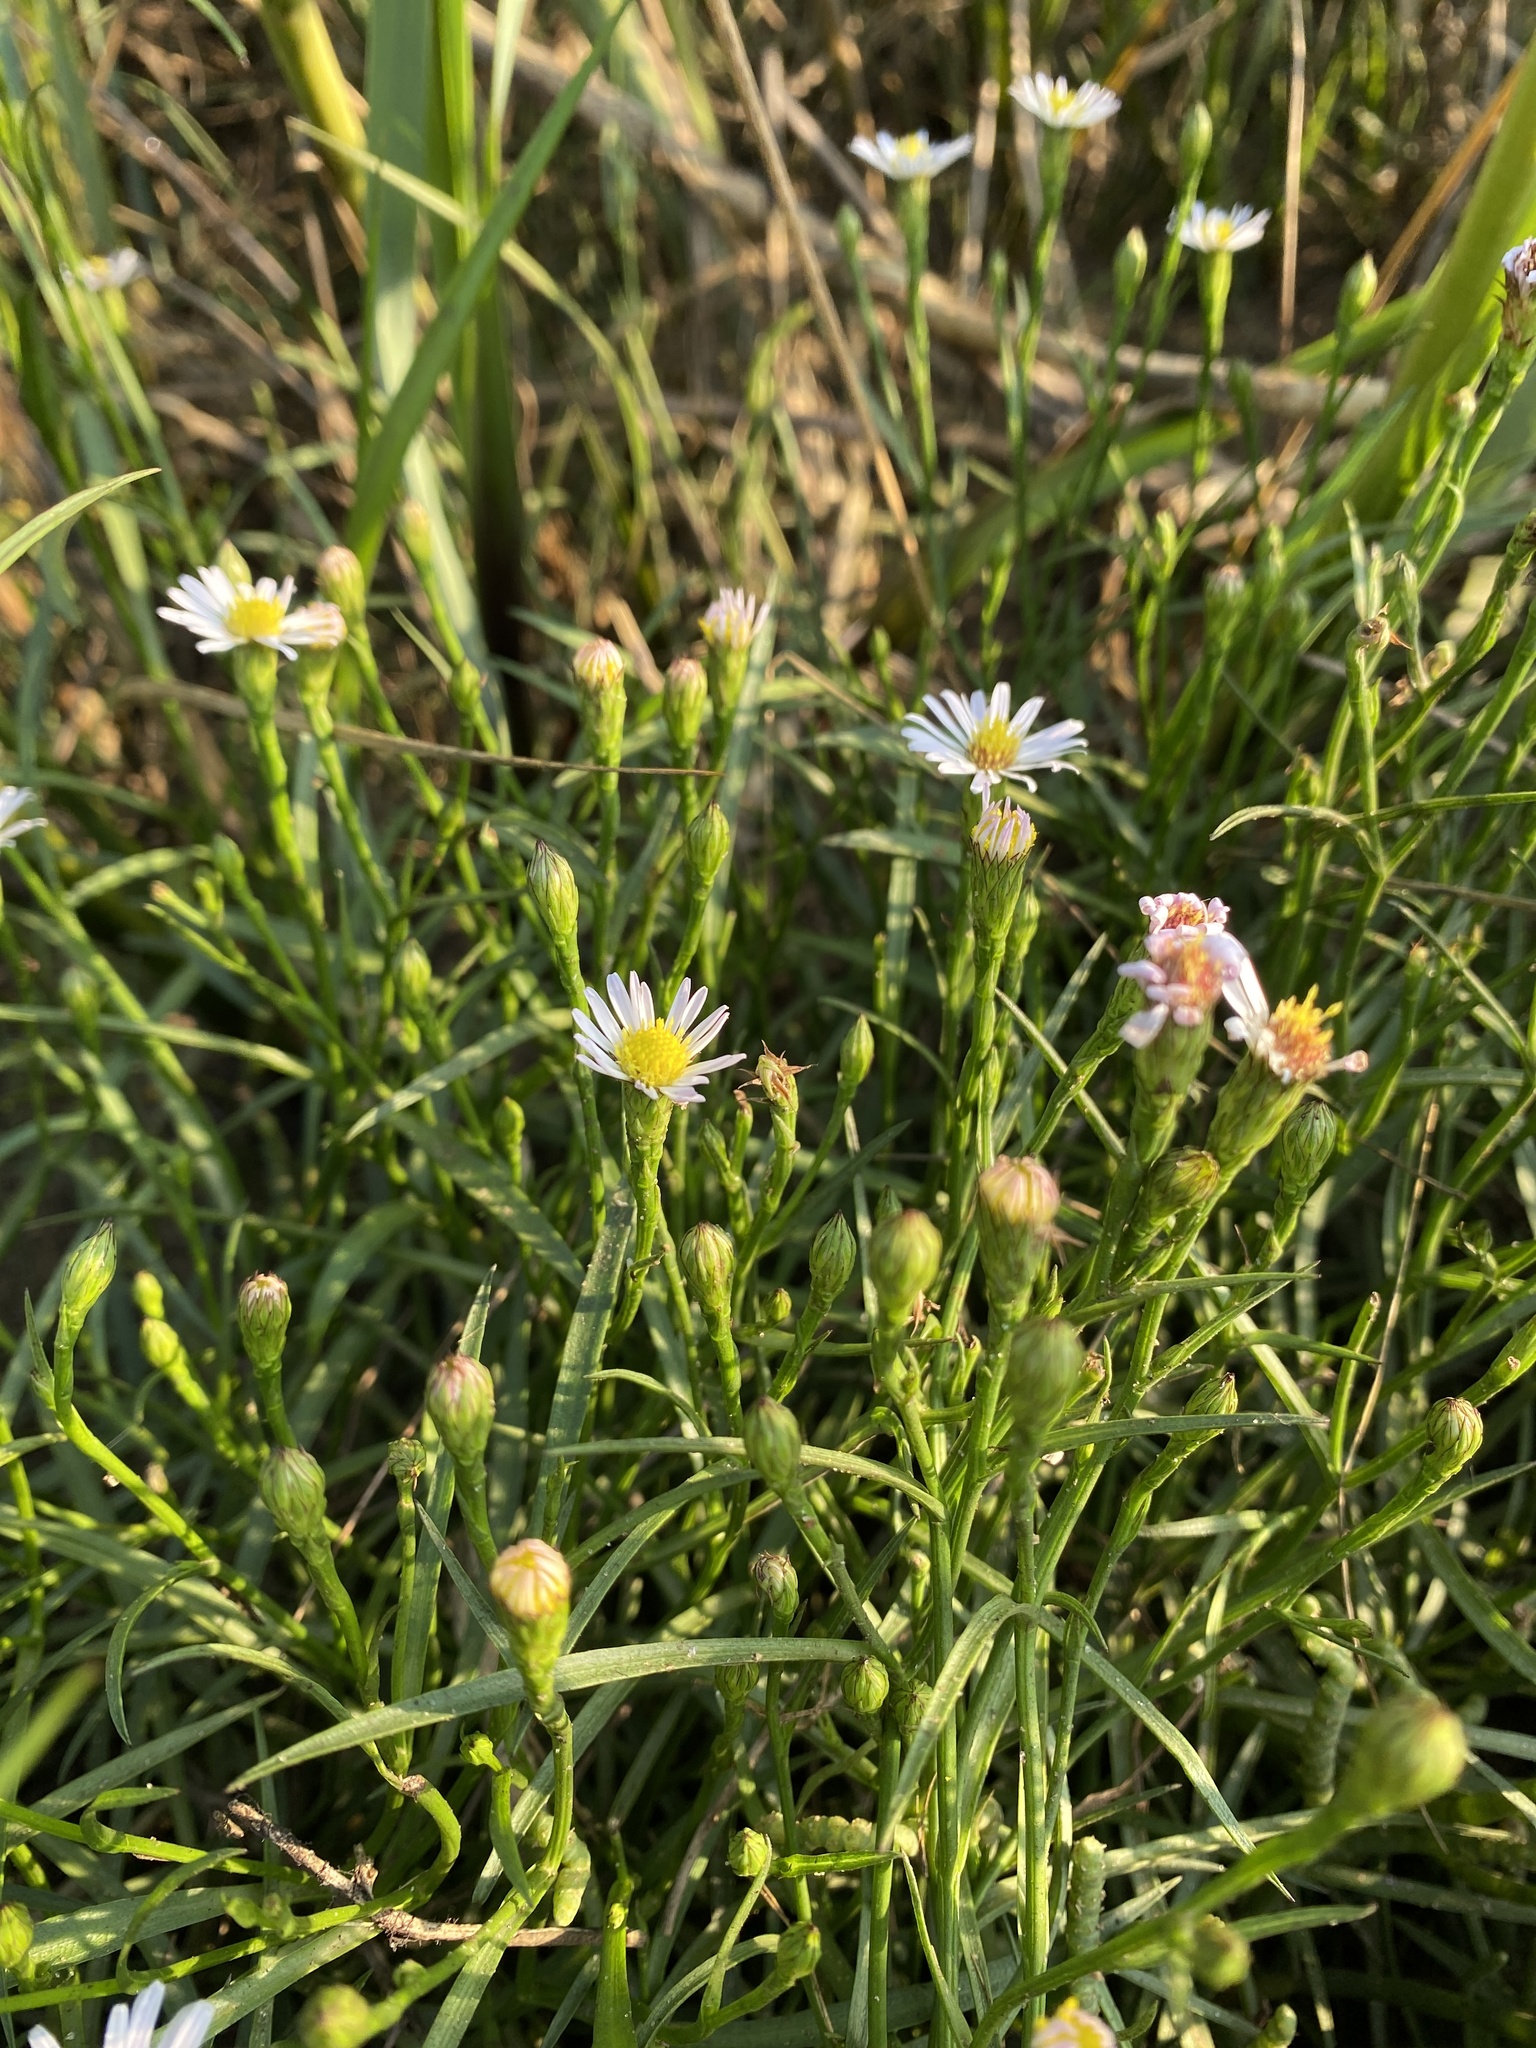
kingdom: Plantae
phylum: Tracheophyta
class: Magnoliopsida
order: Asterales
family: Asteraceae
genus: Symphyotrichum
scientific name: Symphyotrichum tenuifolium
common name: Perennial salt-marsh aster
